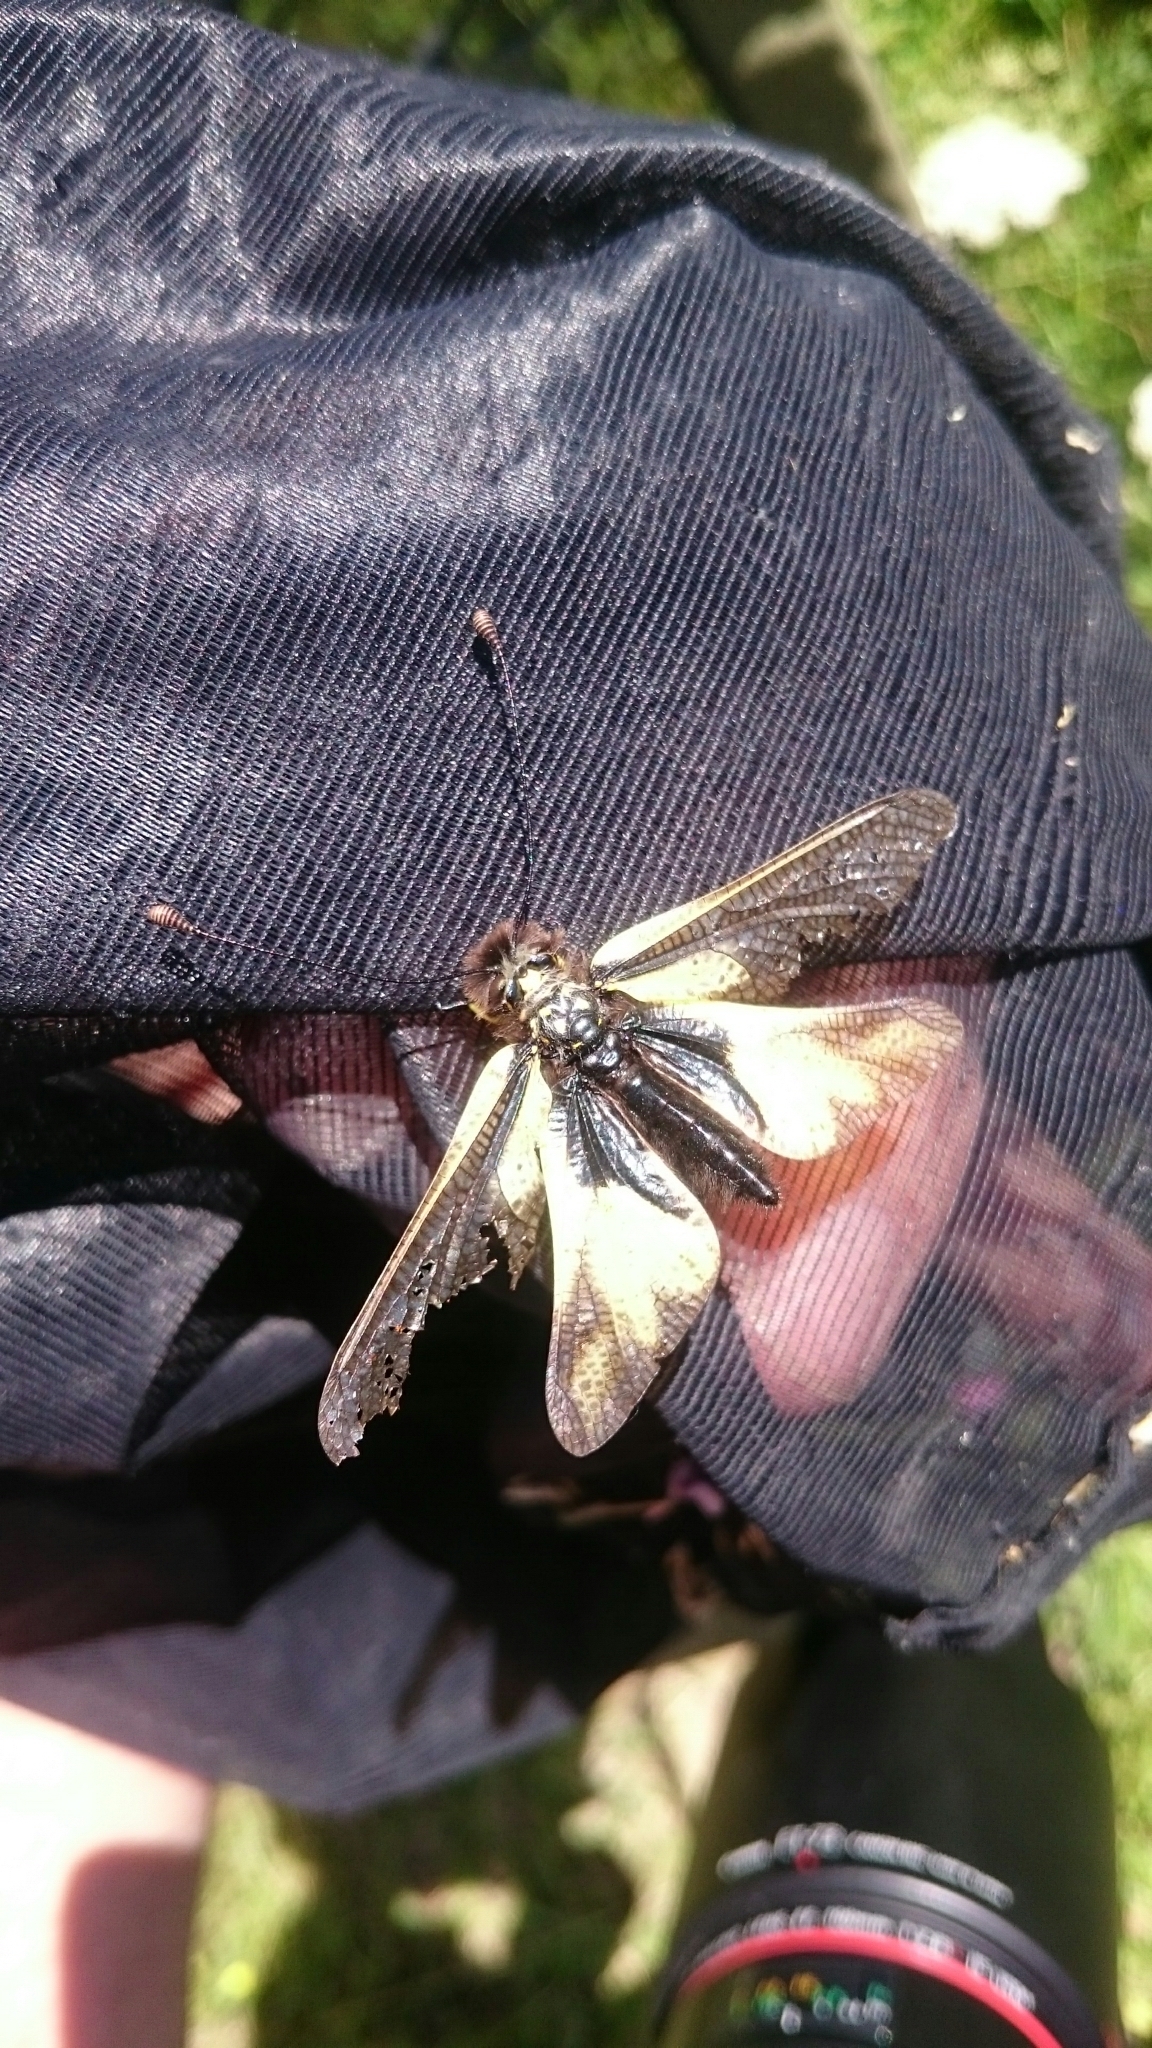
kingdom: Animalia
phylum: Arthropoda
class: Insecta
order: Neuroptera
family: Ascalaphidae
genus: Libelloides
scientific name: Libelloides coccajus
